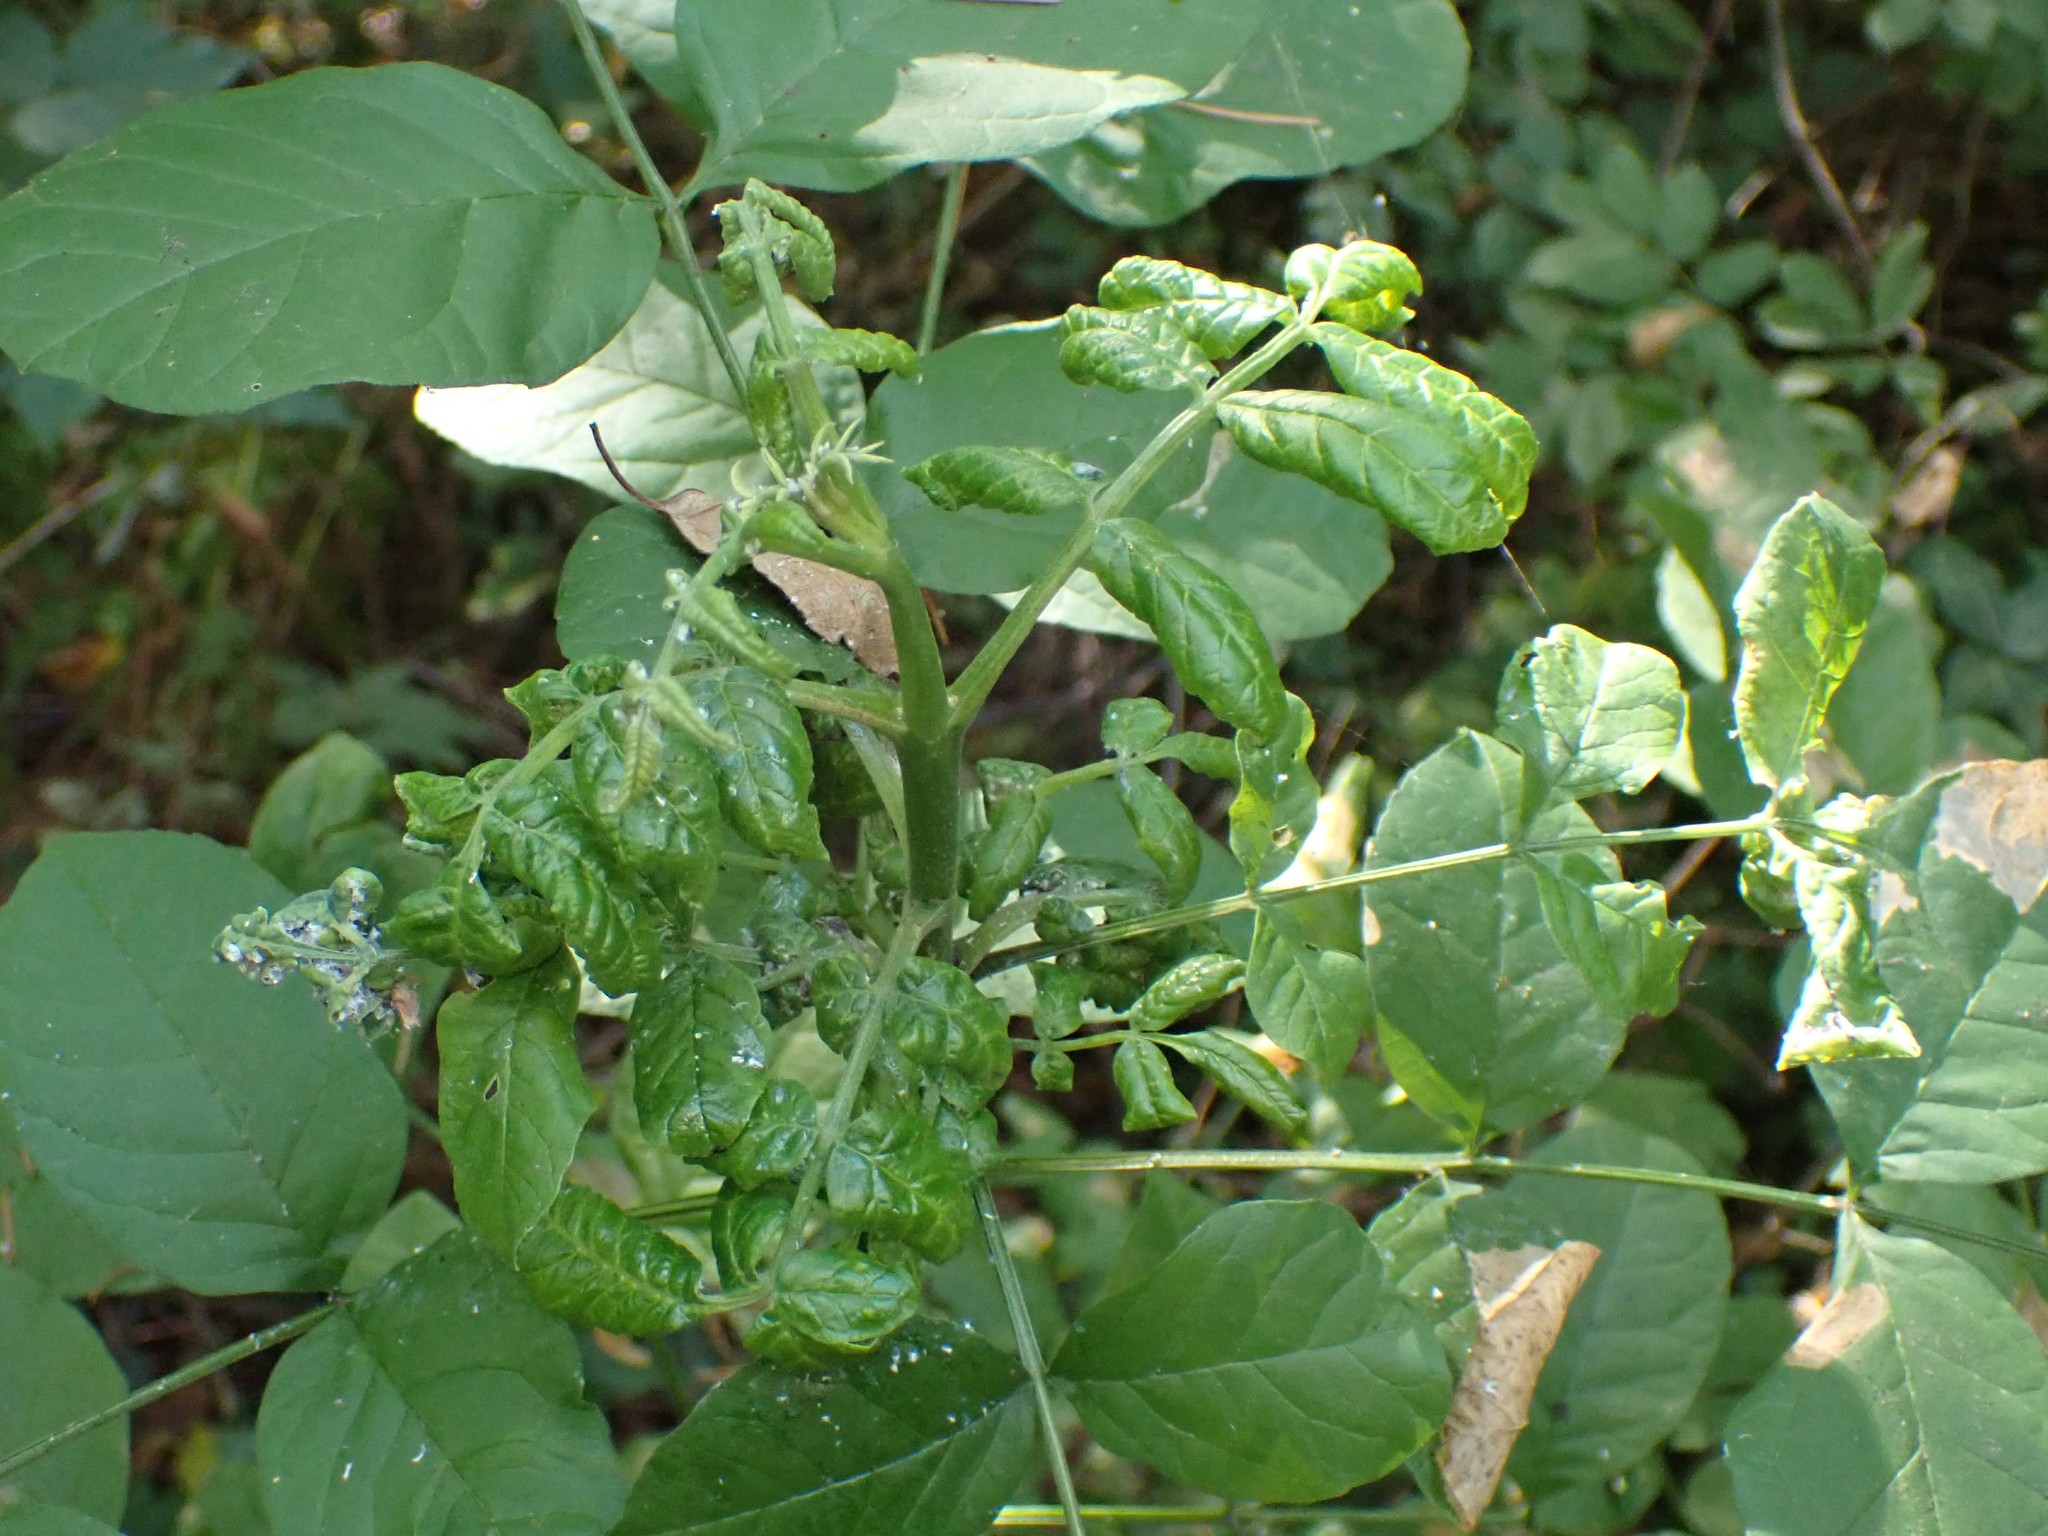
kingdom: Animalia
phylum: Arthropoda
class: Insecta
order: Hemiptera
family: Aphididae
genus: Prociphilus
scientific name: Prociphilus fraxinifolii
